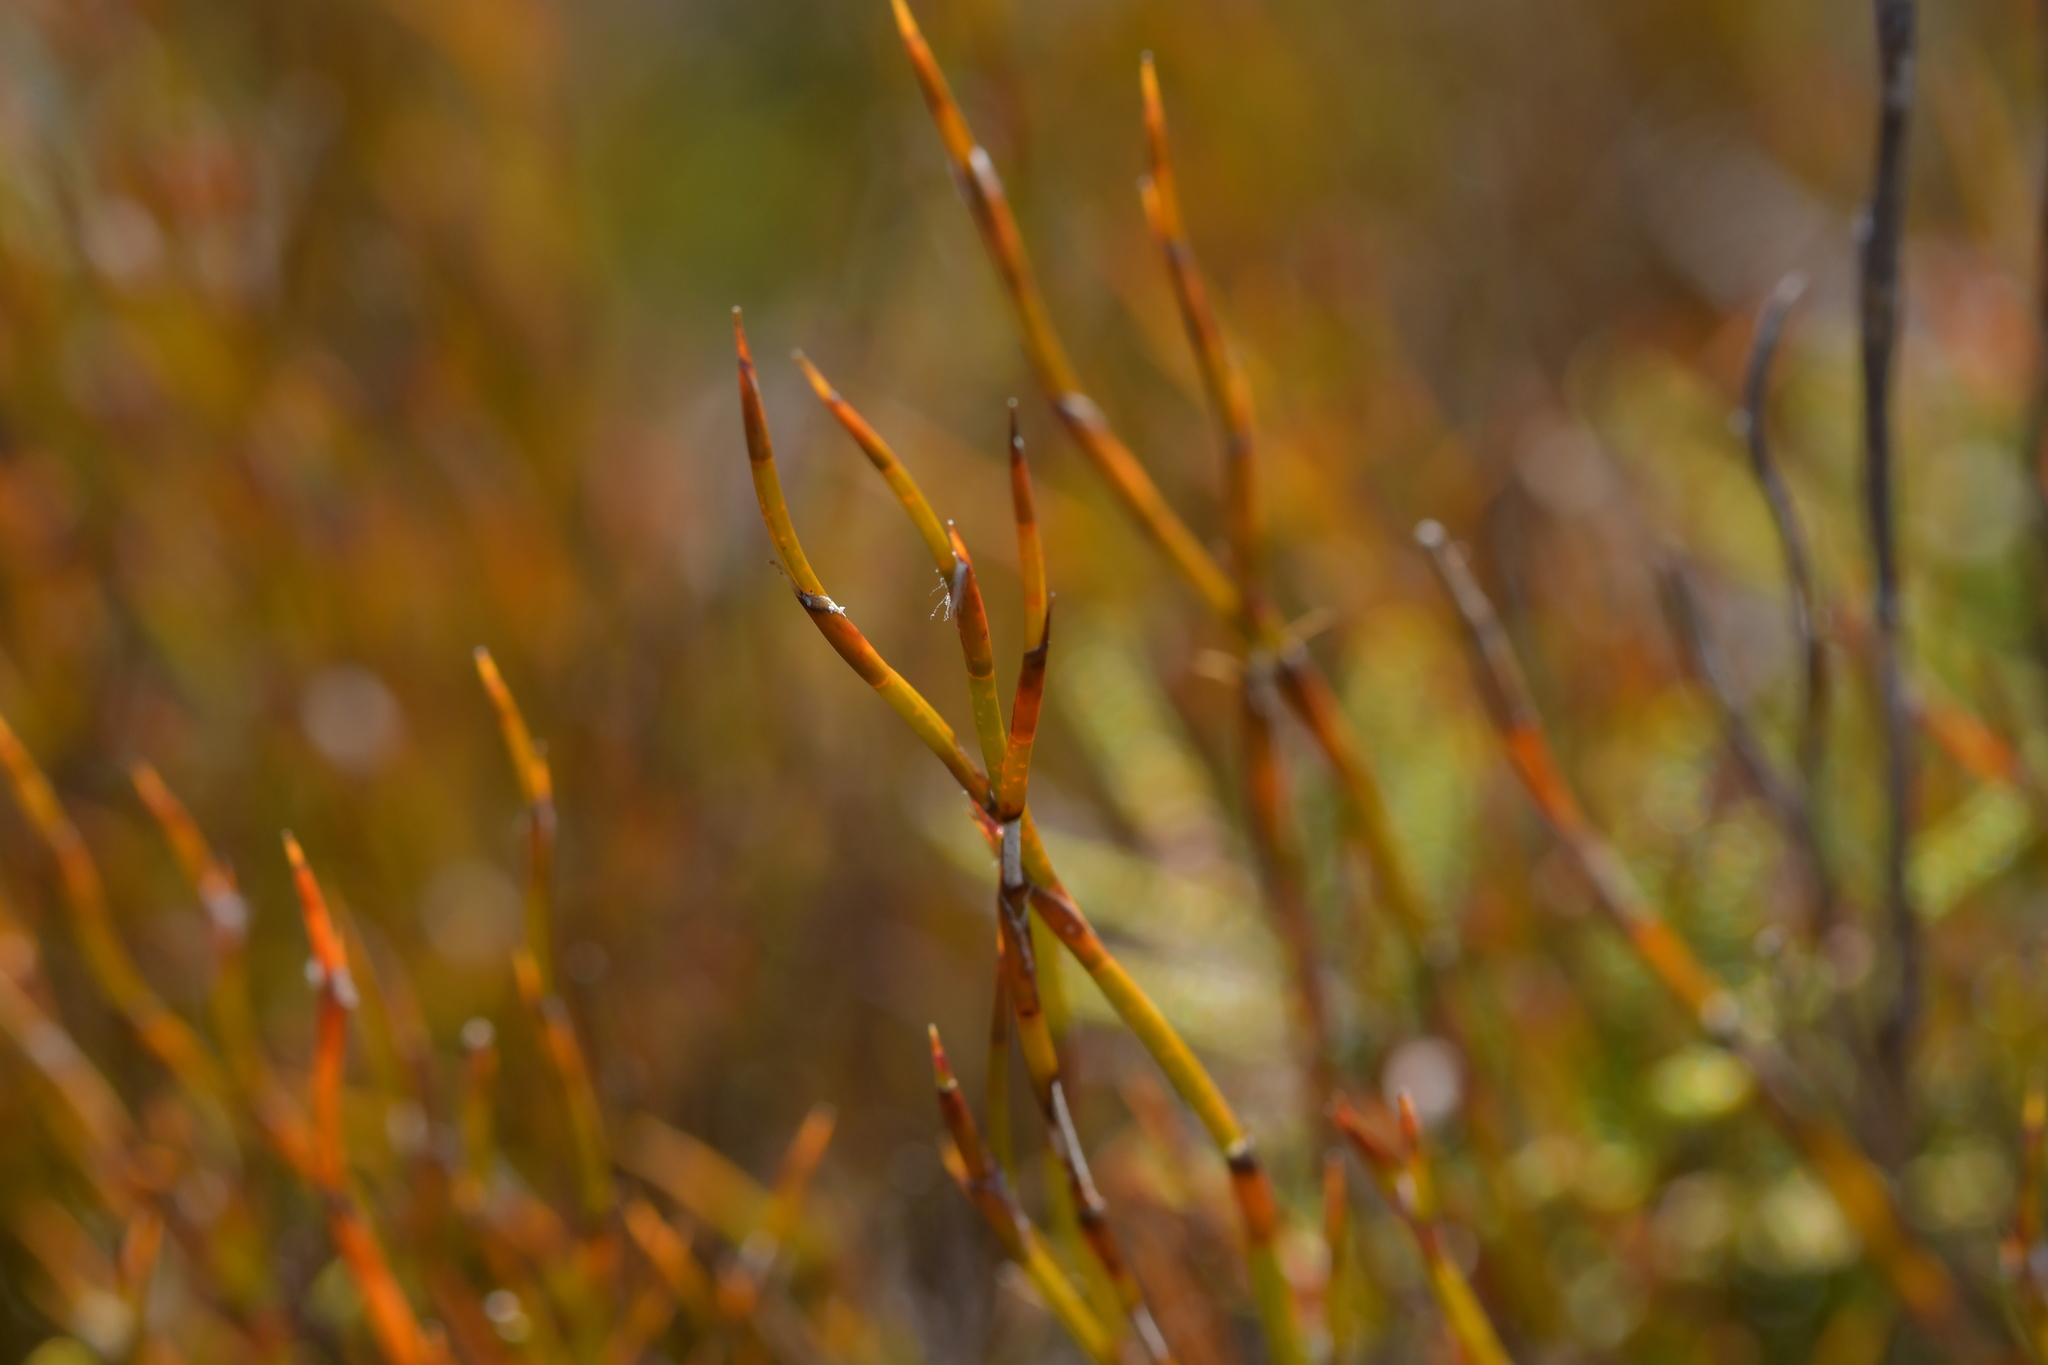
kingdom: Plantae
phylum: Tracheophyta
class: Liliopsida
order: Poales
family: Restionaceae
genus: Empodisma
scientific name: Empodisma minus
